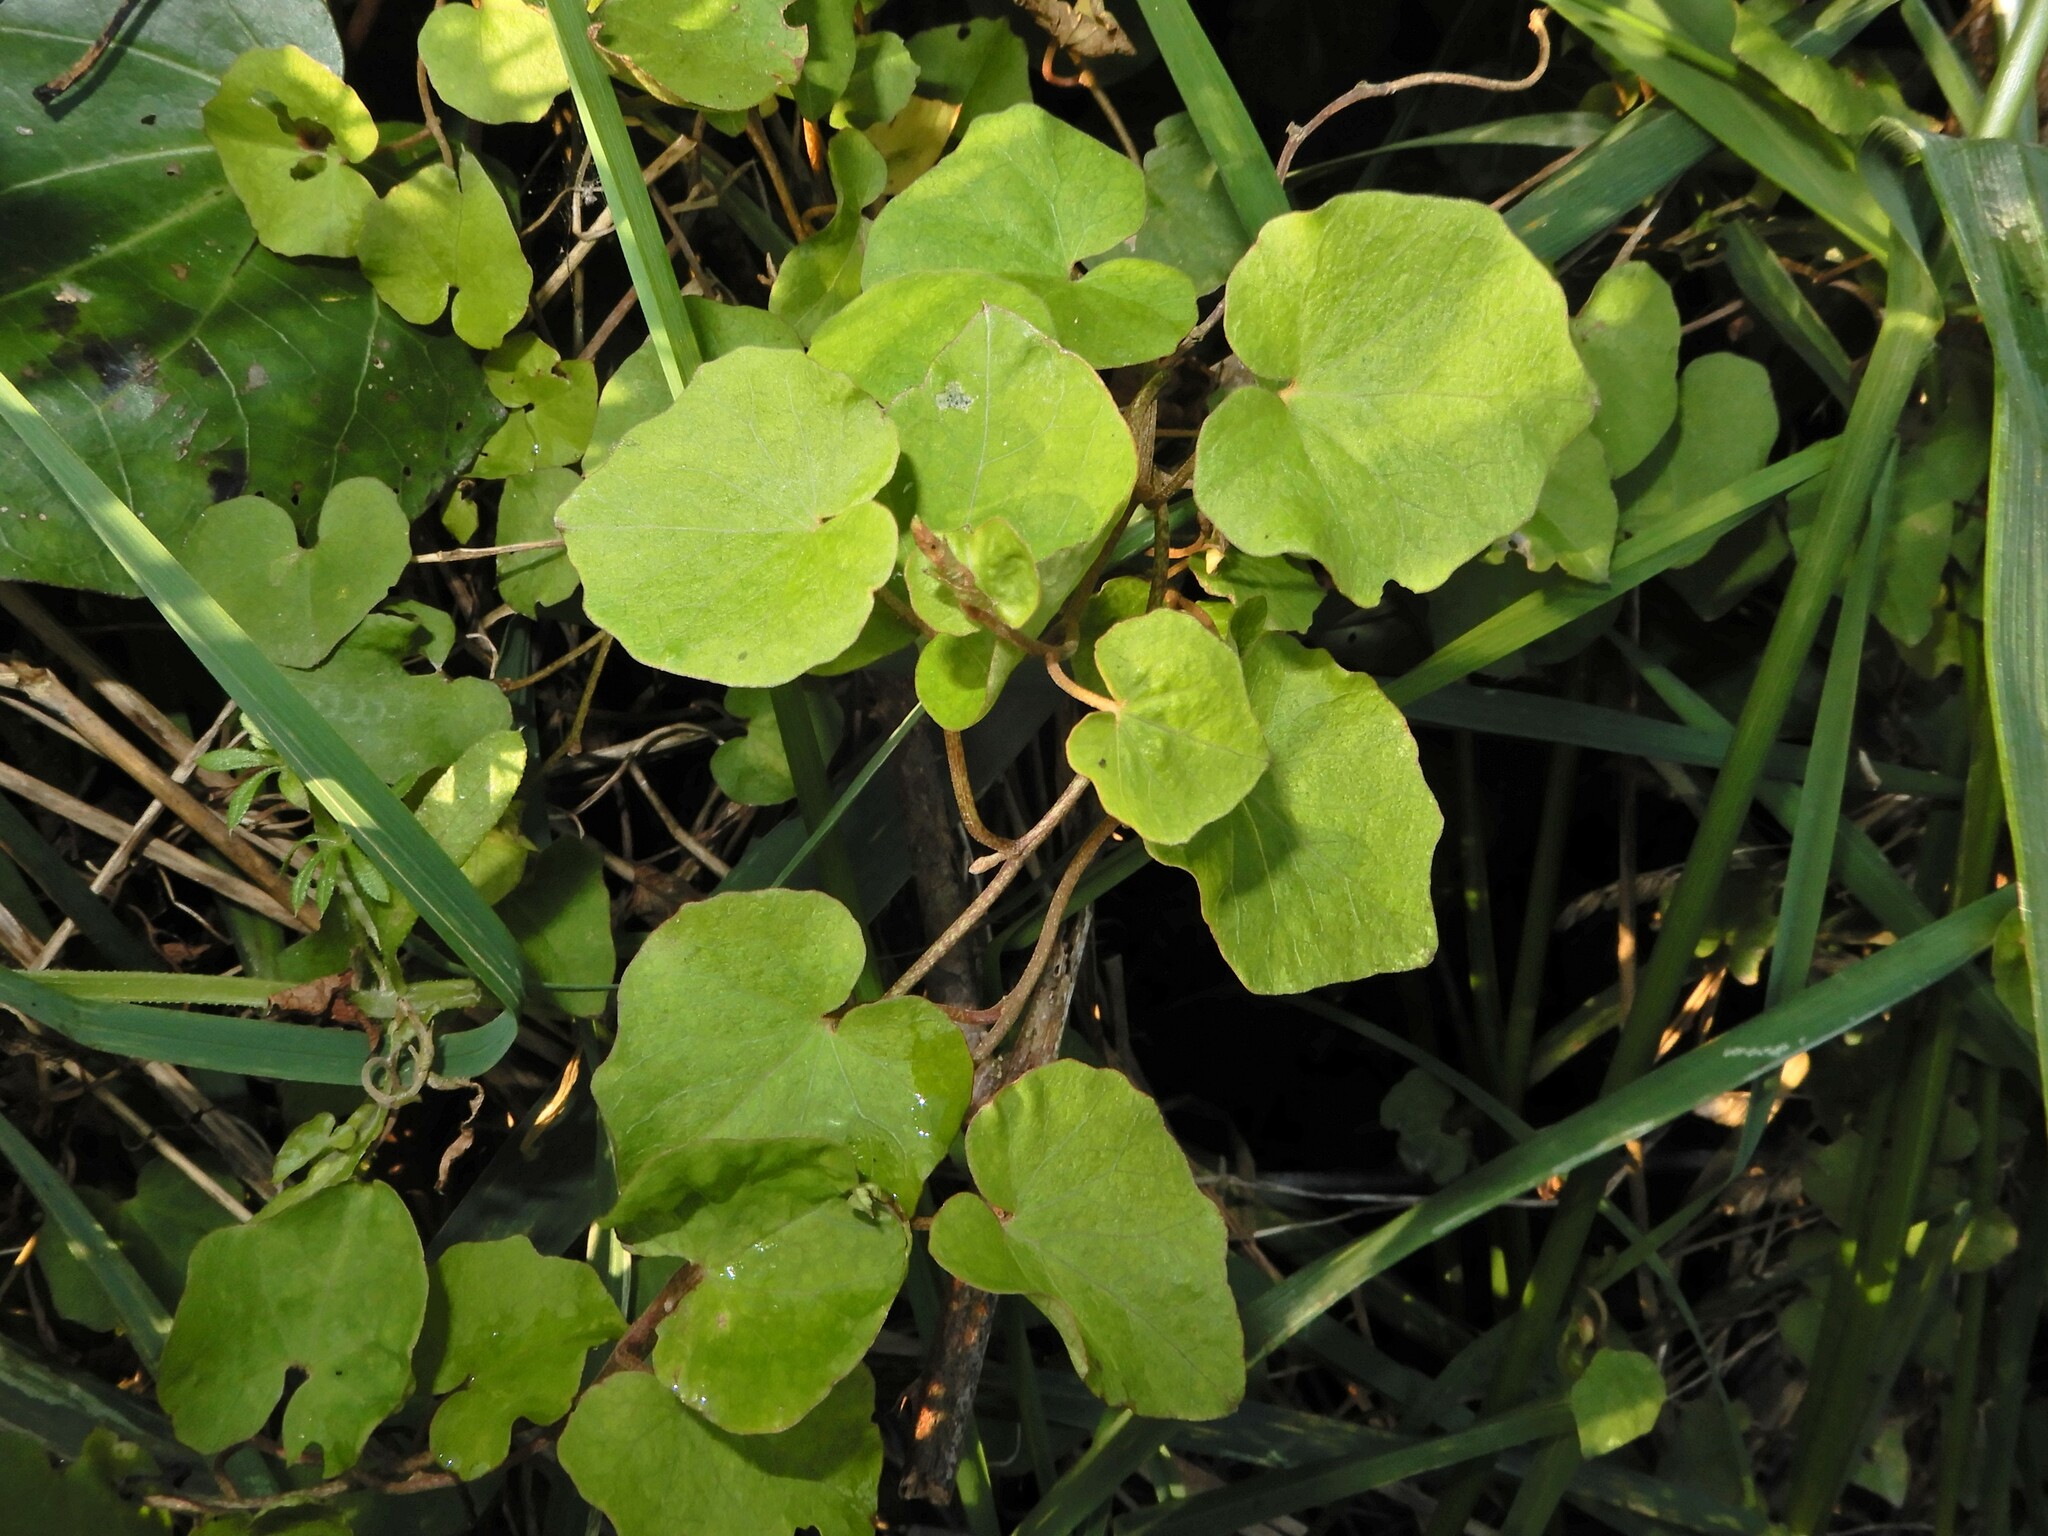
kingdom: Plantae
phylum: Tracheophyta
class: Magnoliopsida
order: Solanales
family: Convolvulaceae
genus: Calystegia
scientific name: Calystegia tuguriorum
